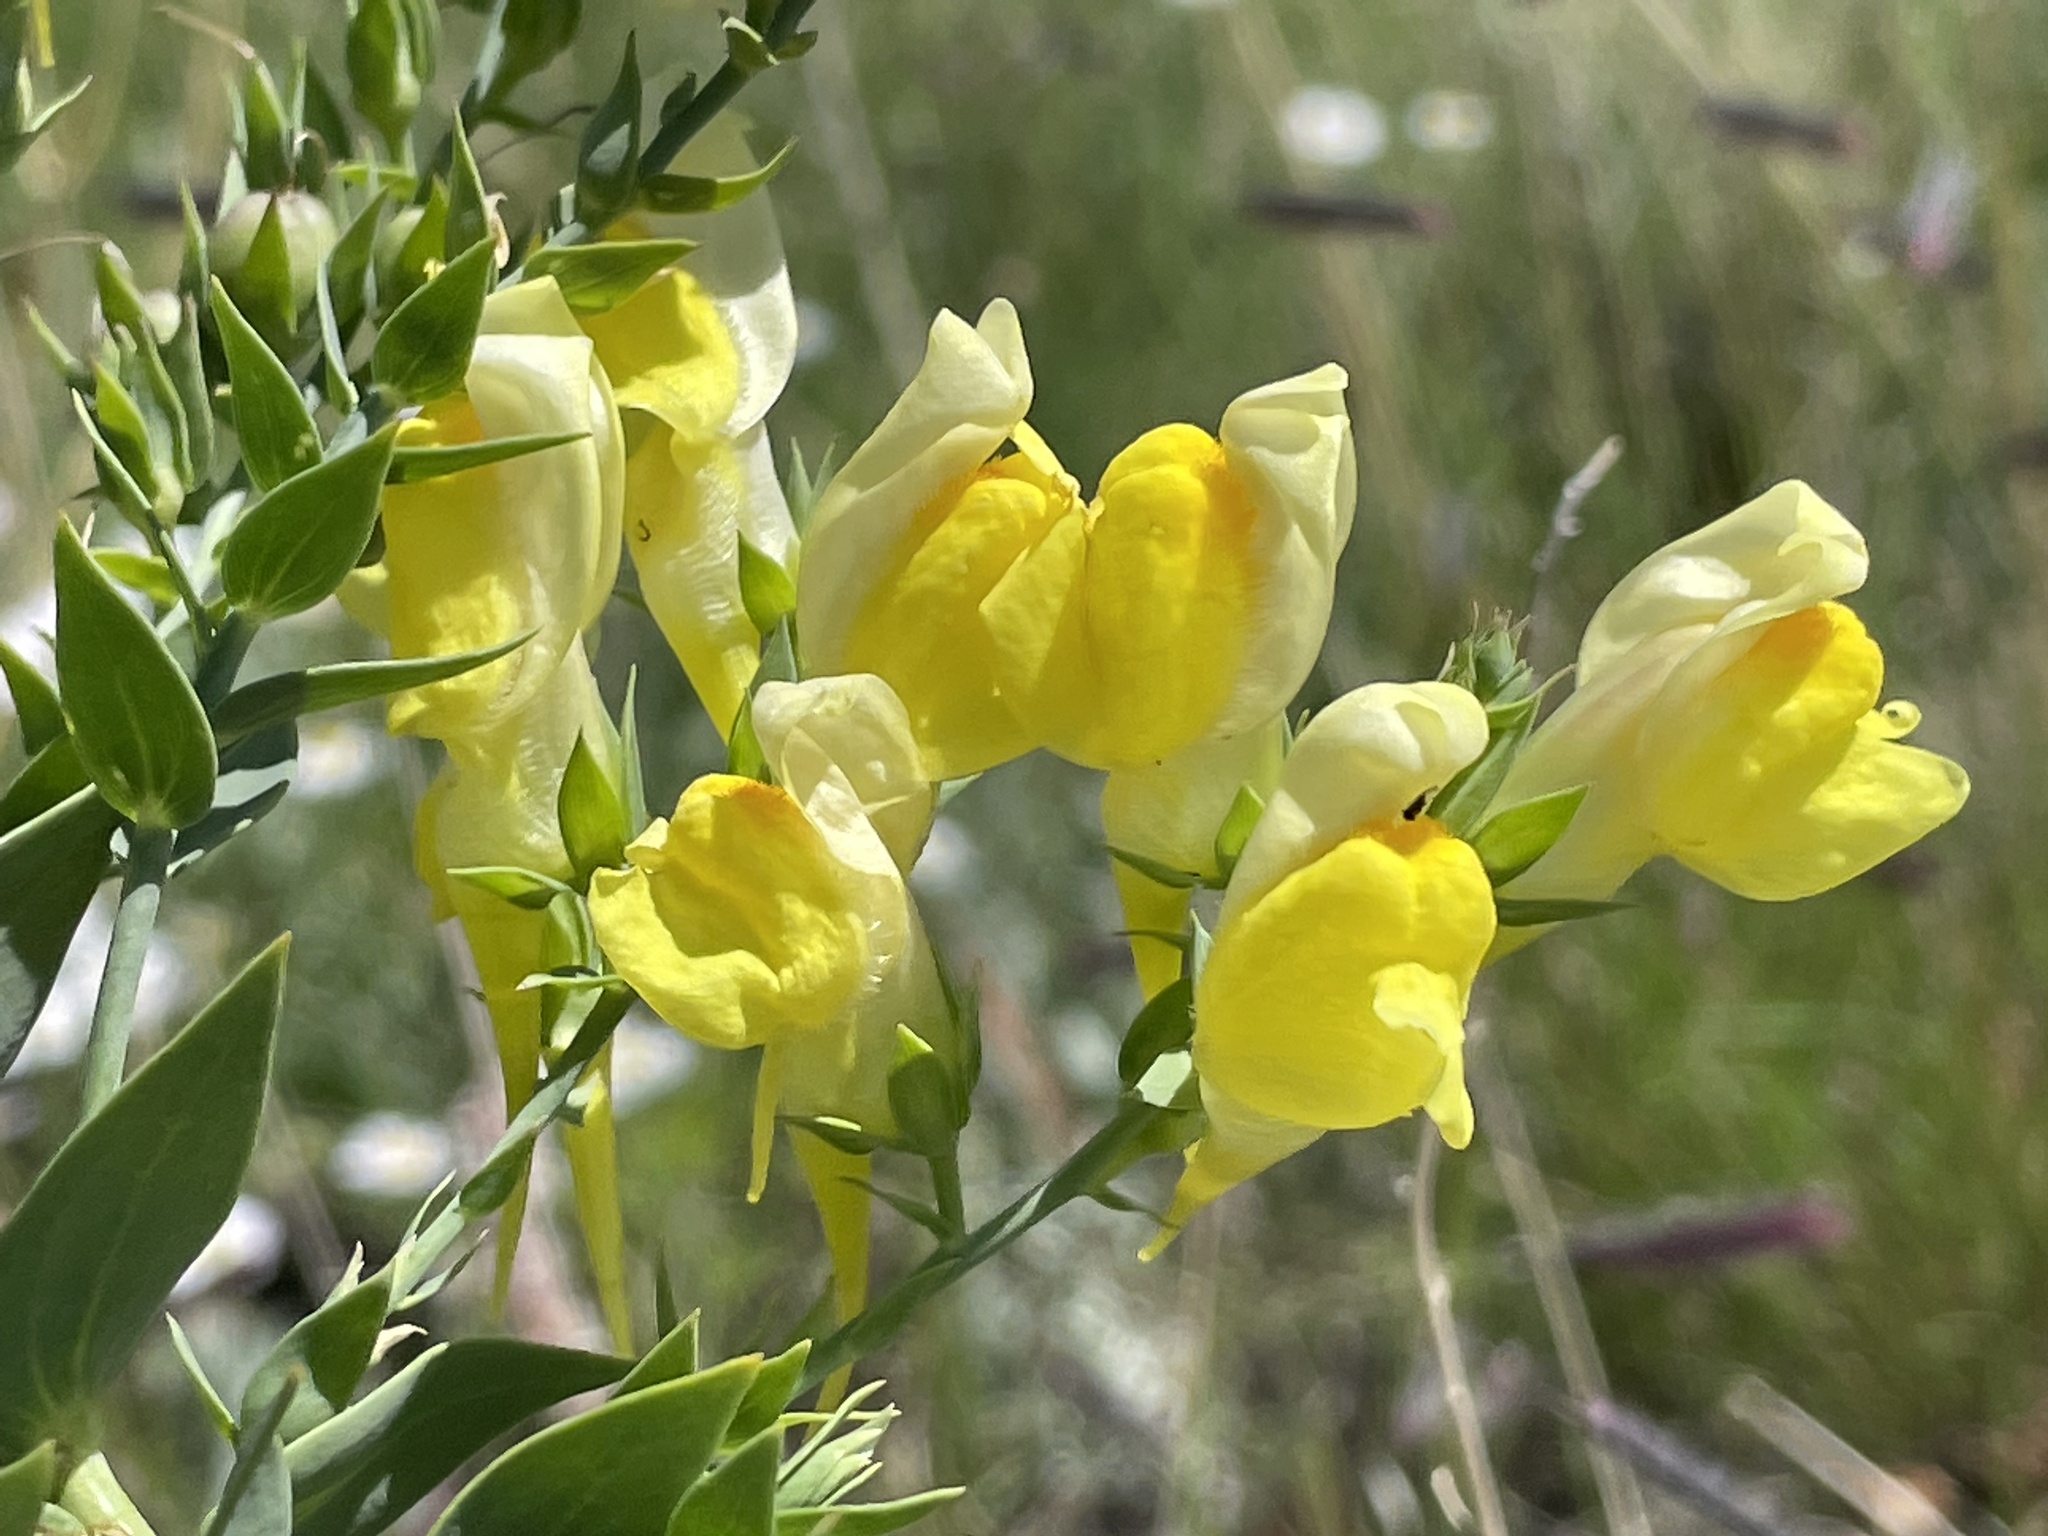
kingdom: Plantae
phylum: Tracheophyta
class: Magnoliopsida
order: Lamiales
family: Plantaginaceae
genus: Linaria
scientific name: Linaria dalmatica
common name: Dalmatian toadflax
